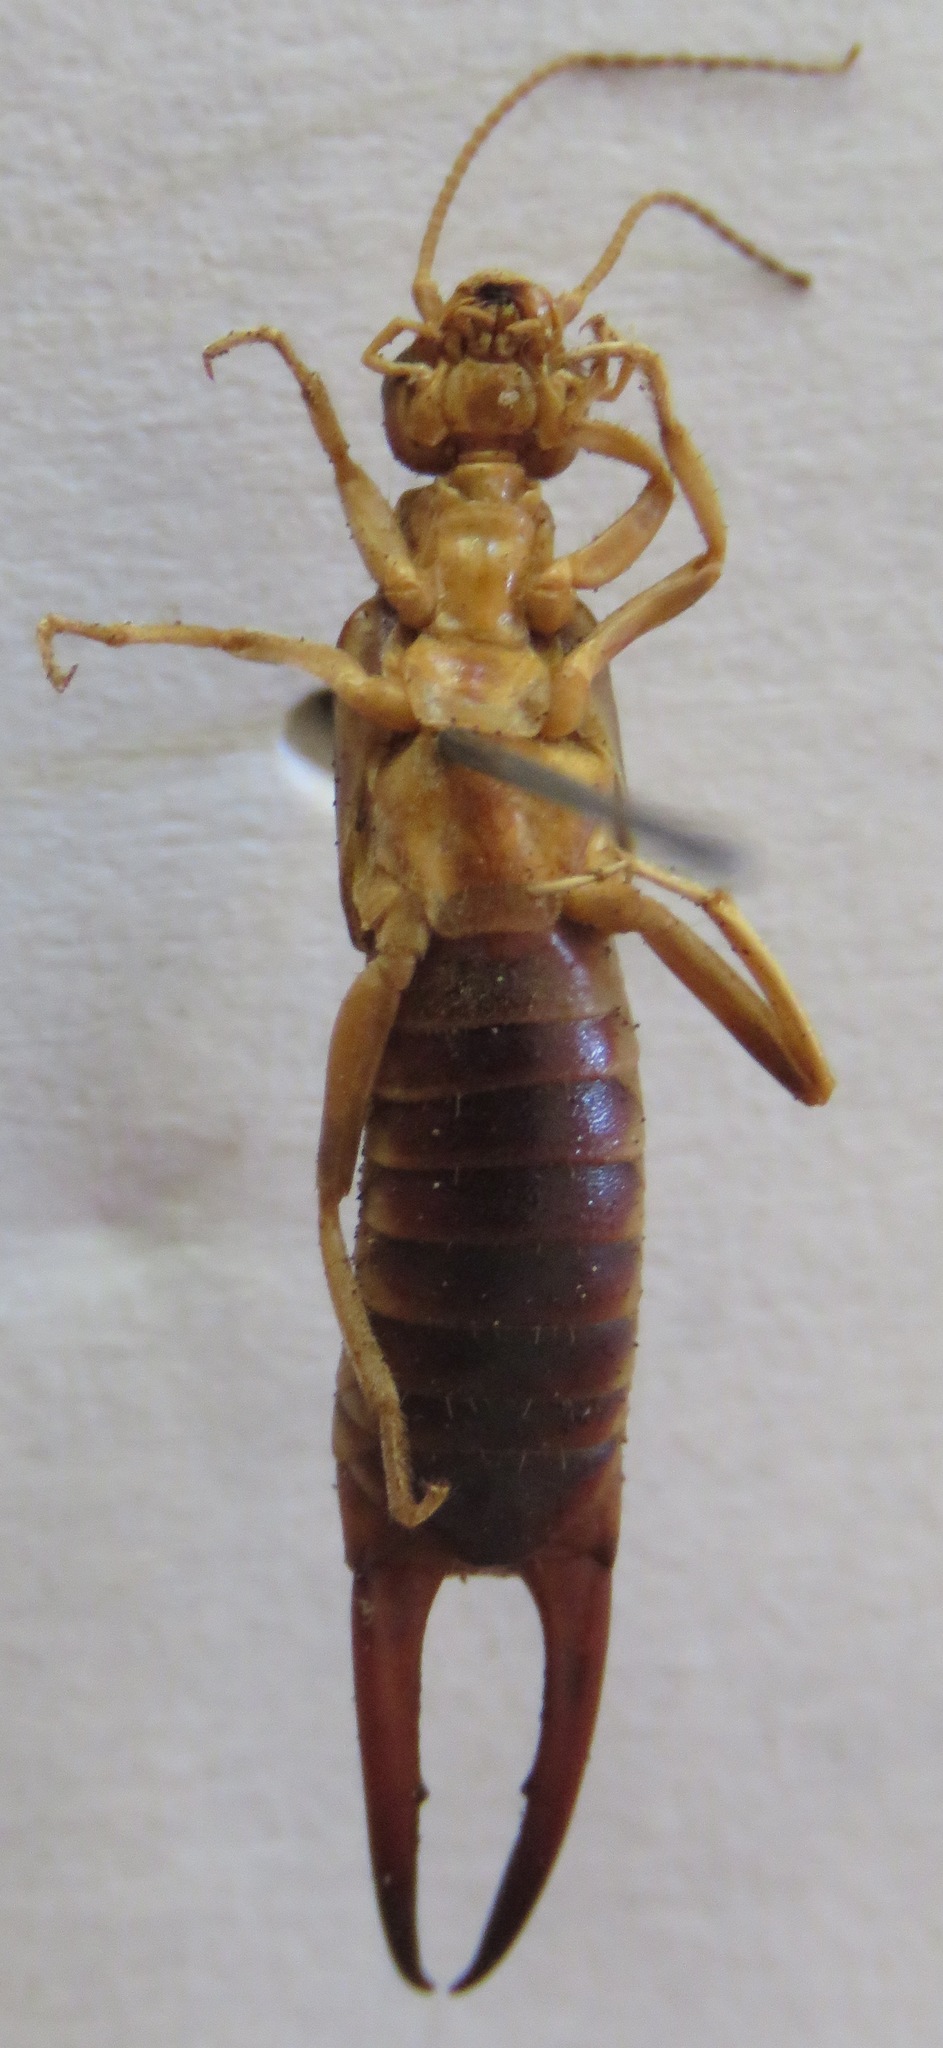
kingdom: Animalia
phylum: Arthropoda
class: Insecta
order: Dermaptera
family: Labiduridae
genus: Labidura
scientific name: Labidura riparia
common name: Striped earwig
